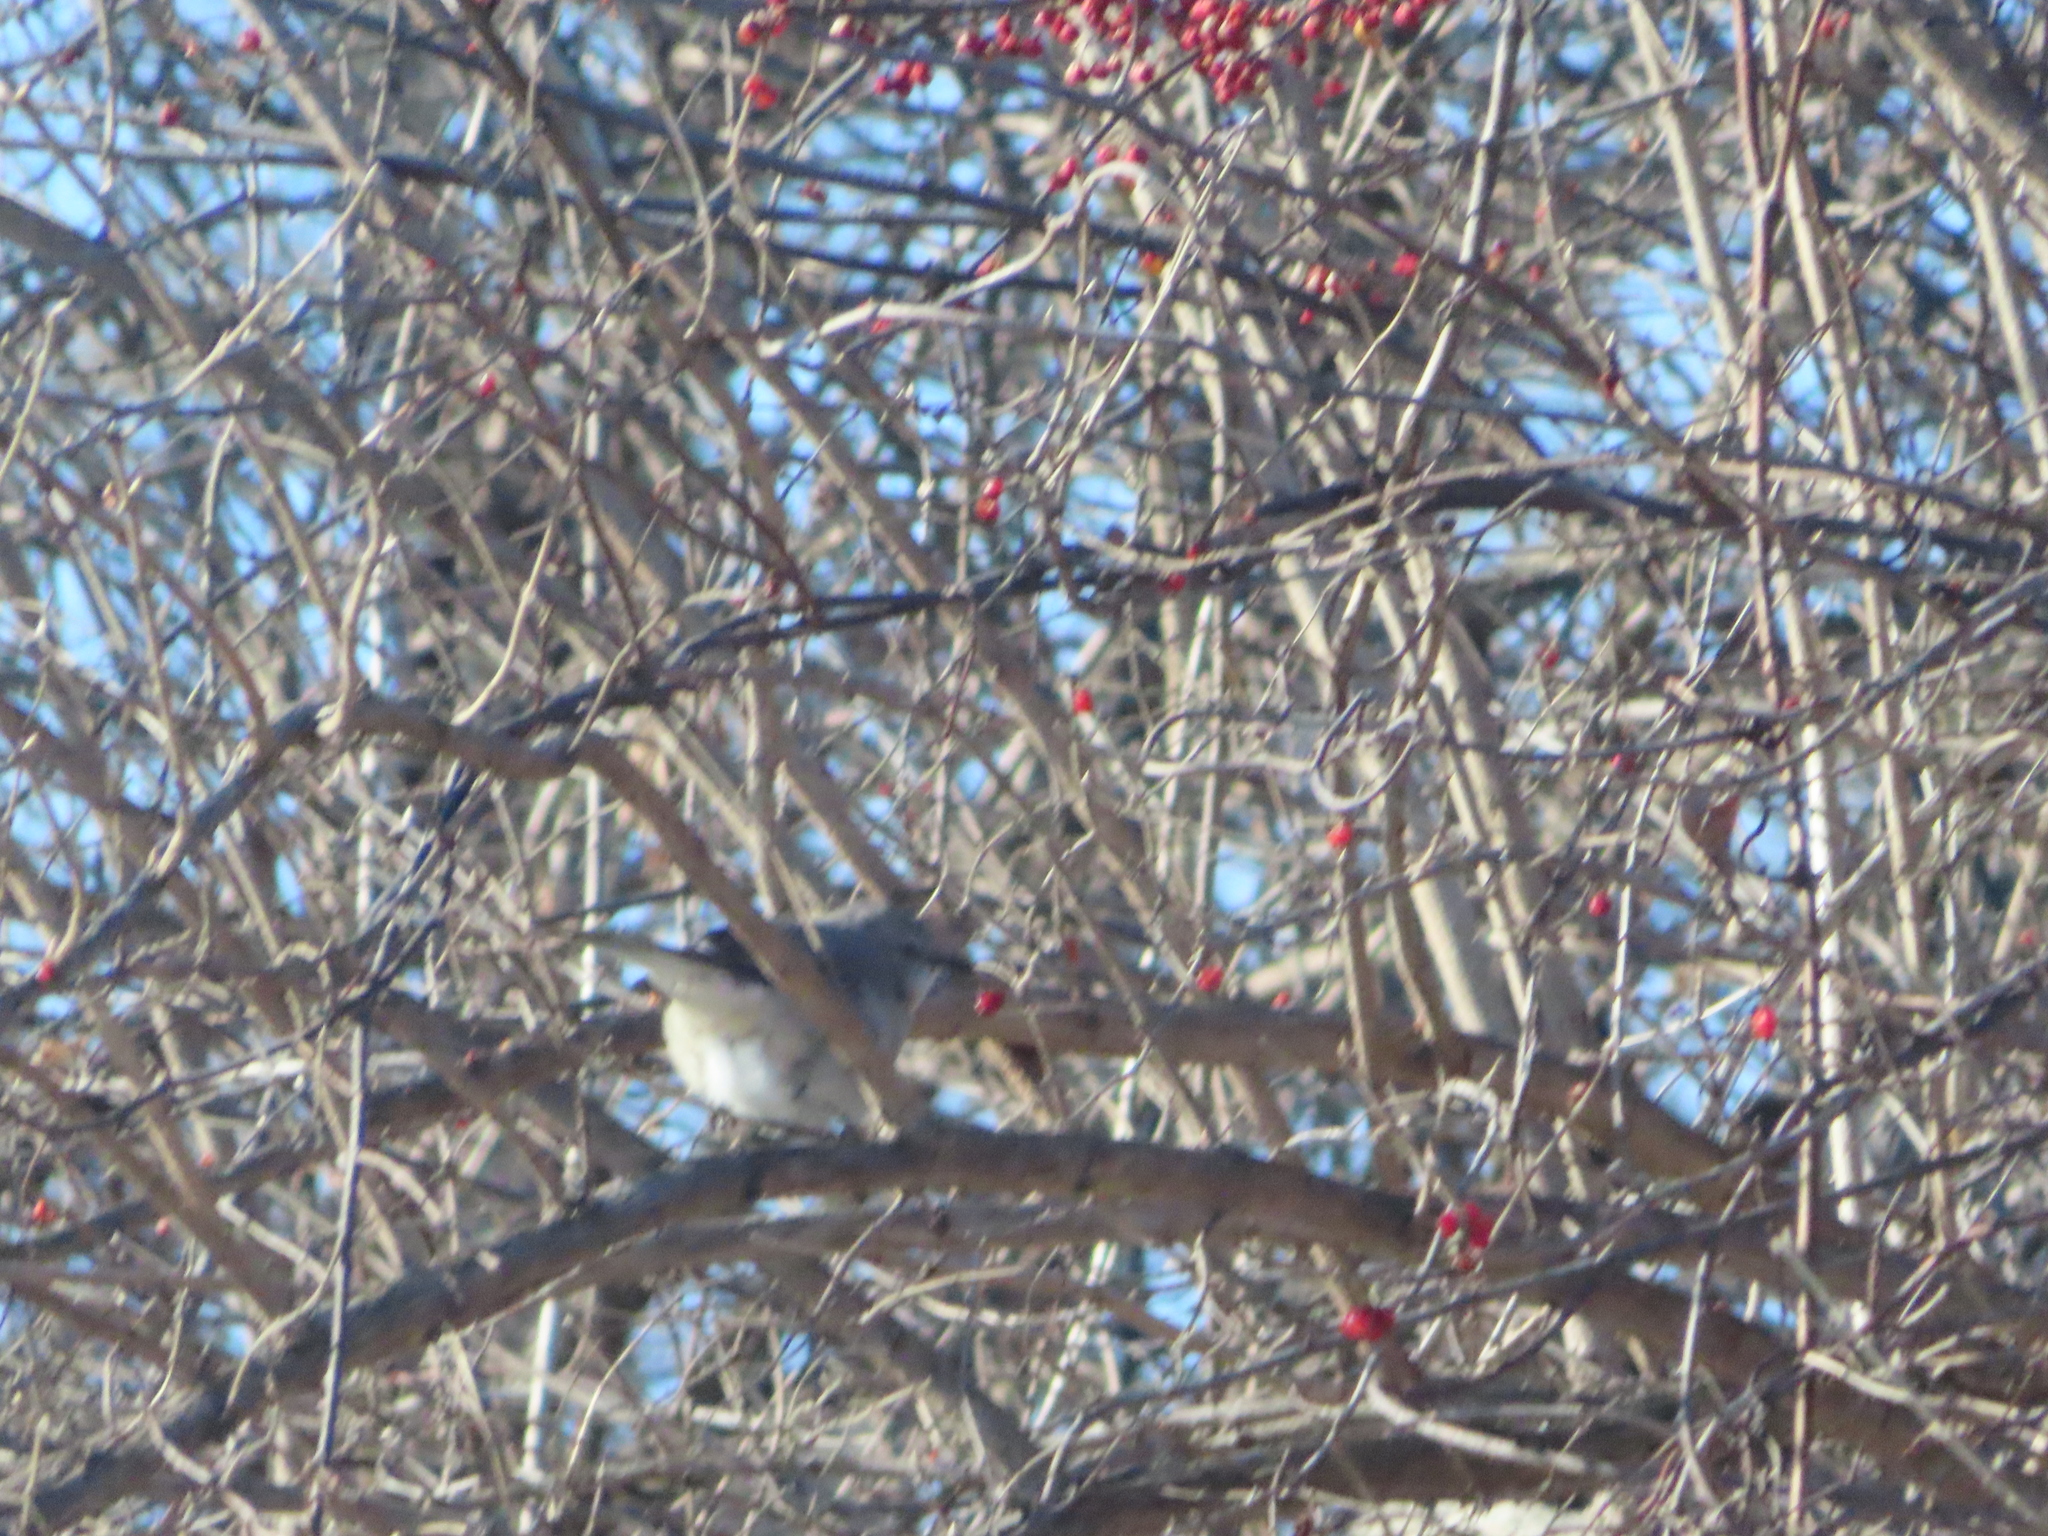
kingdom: Animalia
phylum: Chordata
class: Aves
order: Passeriformes
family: Mimidae
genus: Mimus
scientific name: Mimus polyglottos
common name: Northern mockingbird
